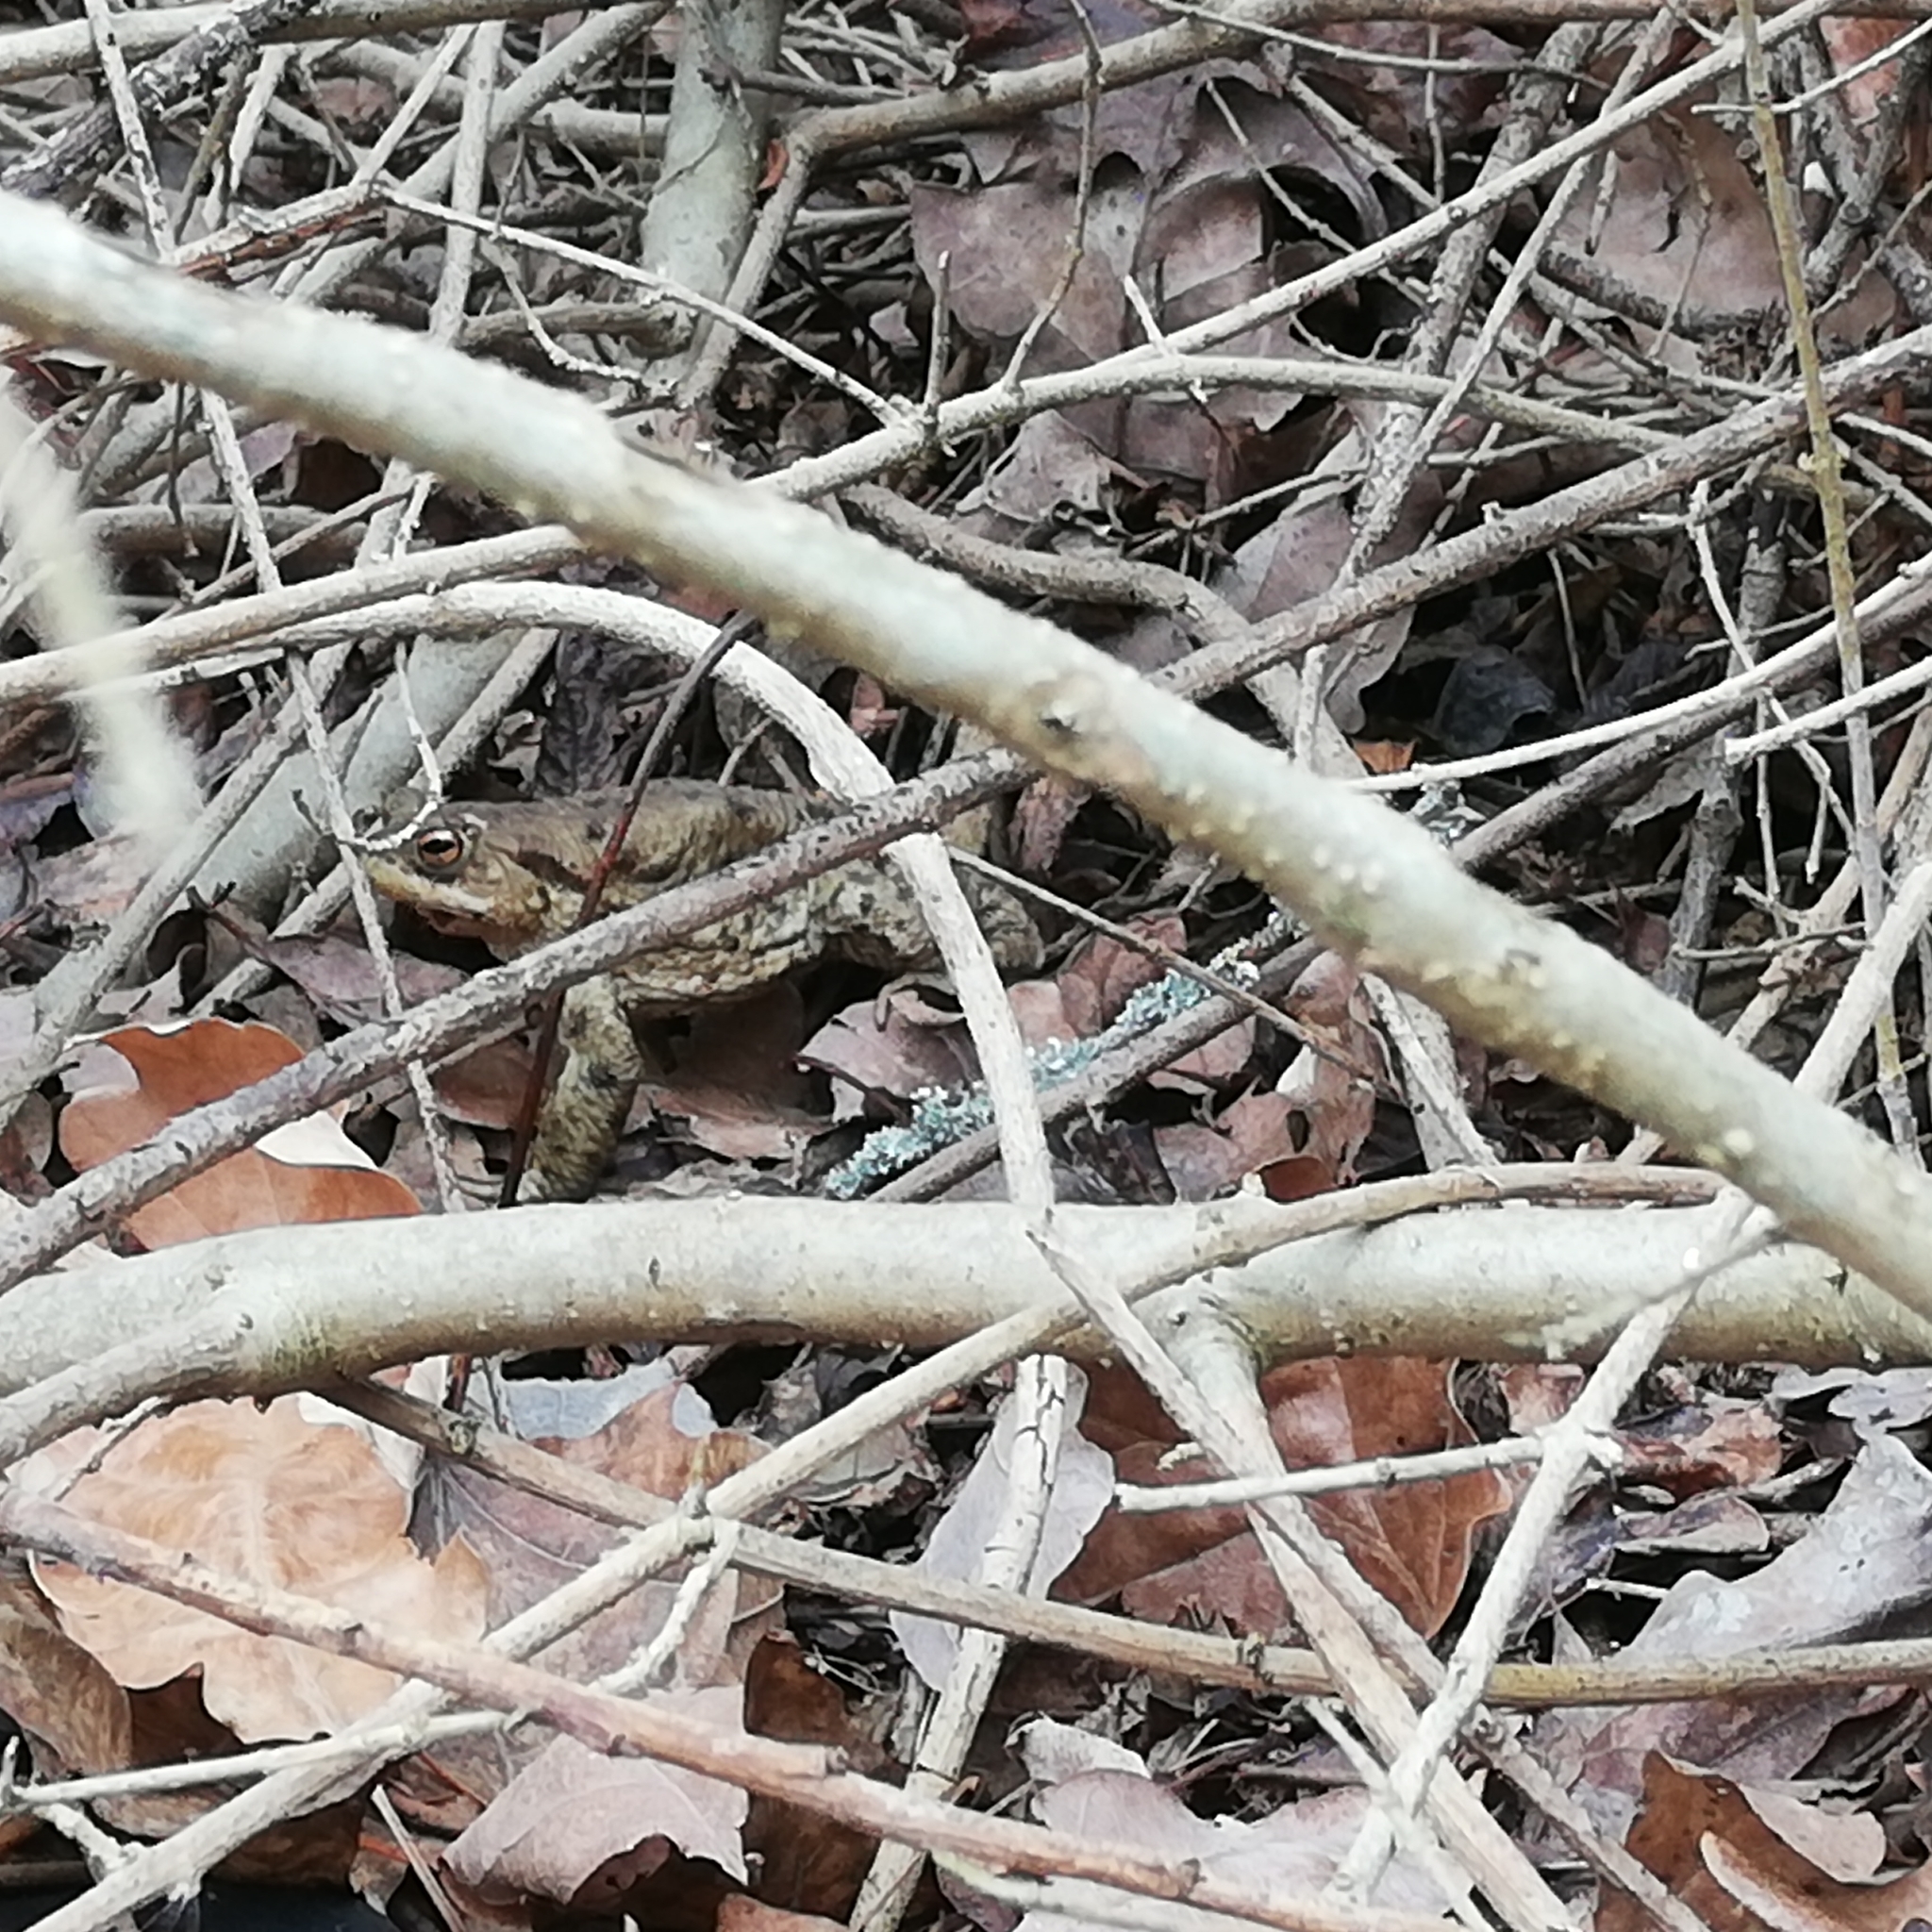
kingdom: Animalia
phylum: Chordata
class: Amphibia
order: Anura
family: Bufonidae
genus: Bufo
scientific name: Bufo bufo
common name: Common toad
